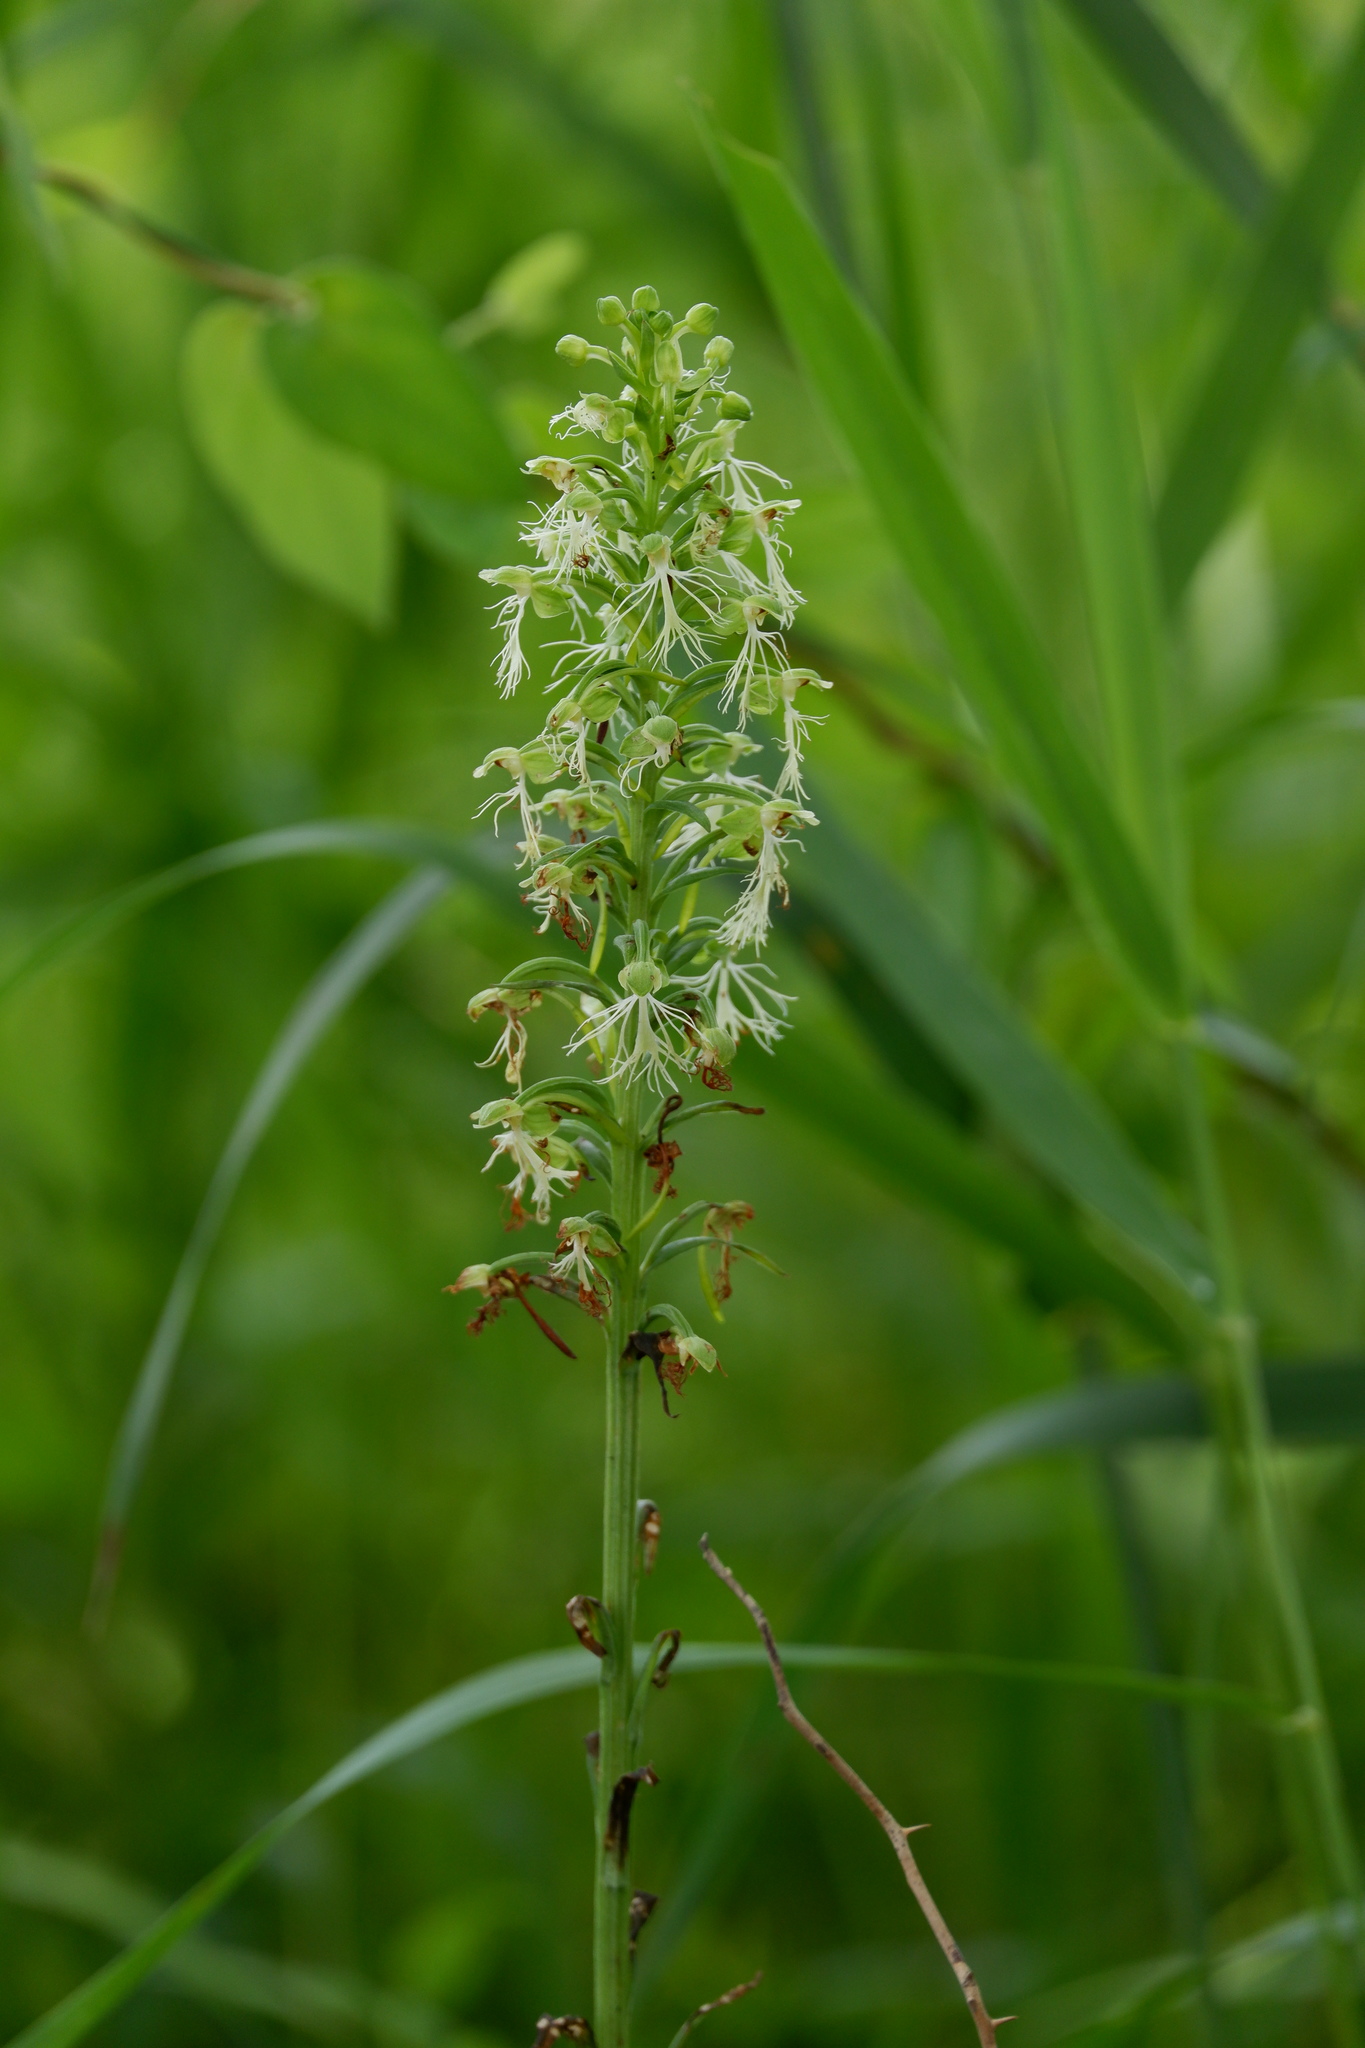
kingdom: Plantae
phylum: Tracheophyta
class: Liliopsida
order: Asparagales
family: Orchidaceae
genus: Platanthera
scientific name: Platanthera lacera
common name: Green fringed orchid
